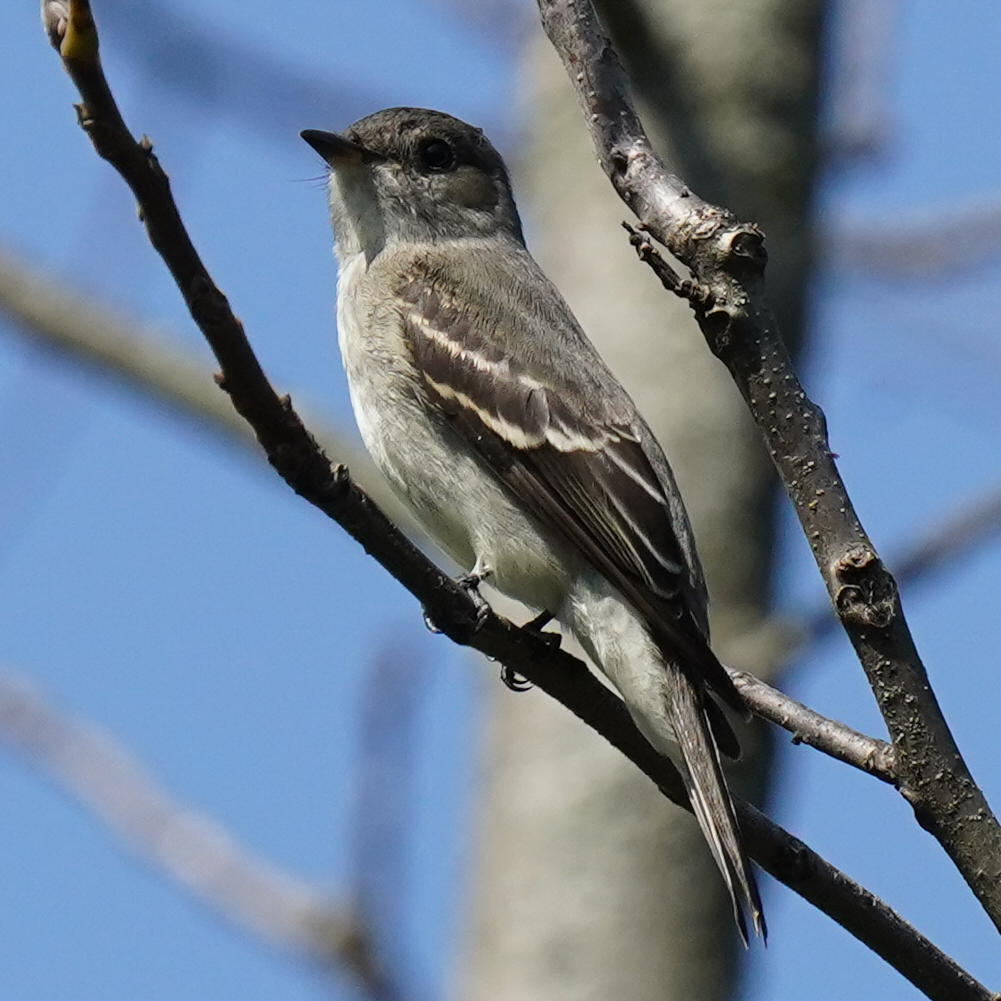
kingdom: Animalia
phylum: Chordata
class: Aves
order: Passeriformes
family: Tyrannidae
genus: Contopus
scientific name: Contopus virens
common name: Eastern wood-pewee
